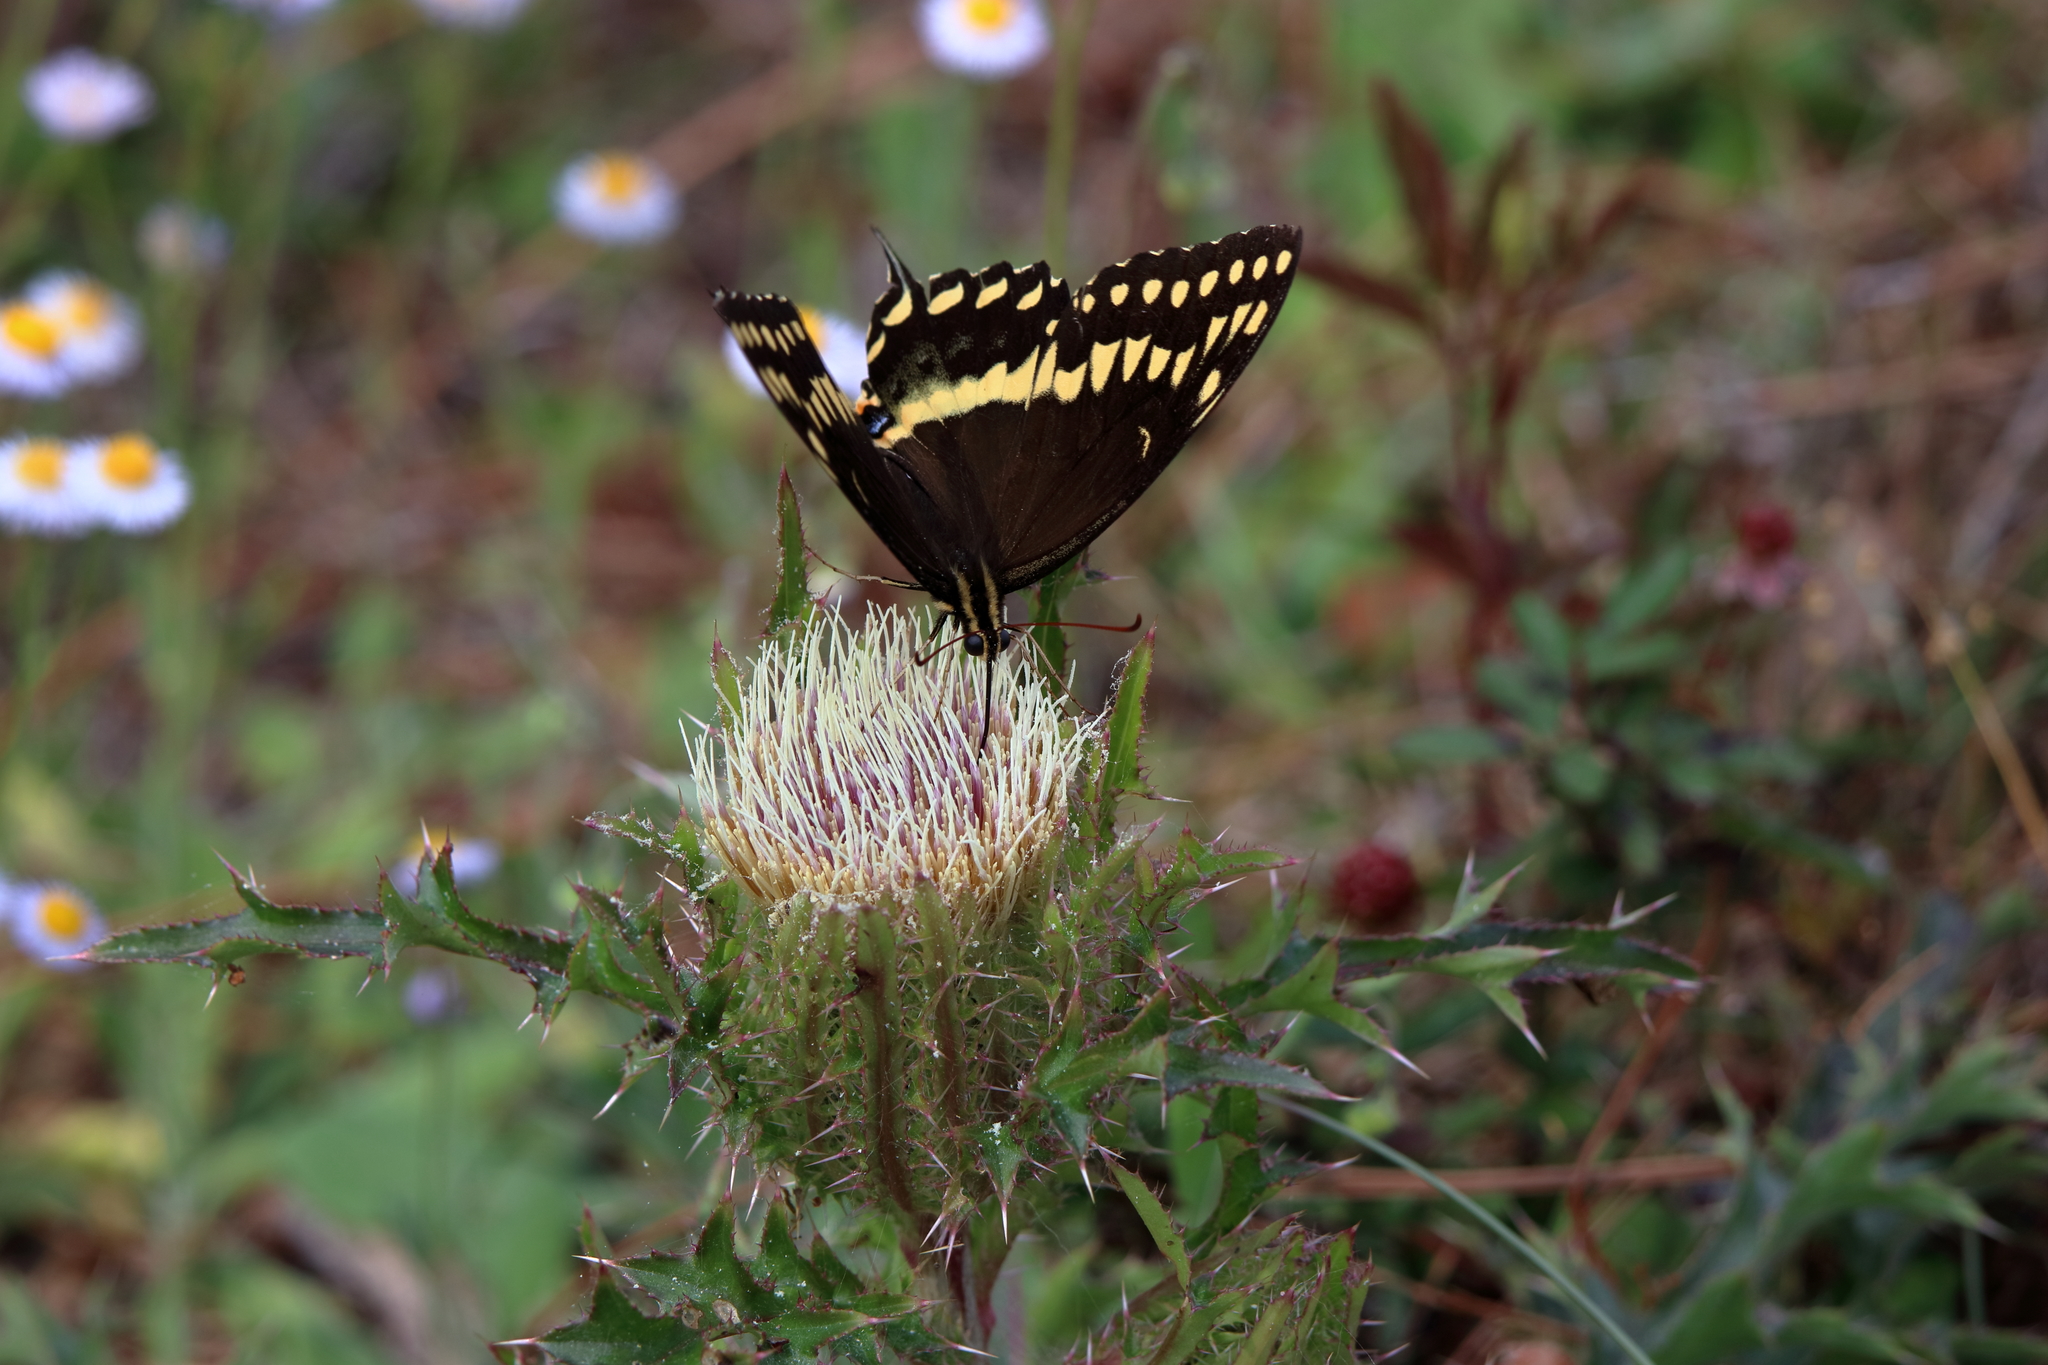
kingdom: Animalia
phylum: Arthropoda
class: Insecta
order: Lepidoptera
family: Papilionidae
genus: Papilio
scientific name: Papilio palamedes
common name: Palamedes swallowtail
